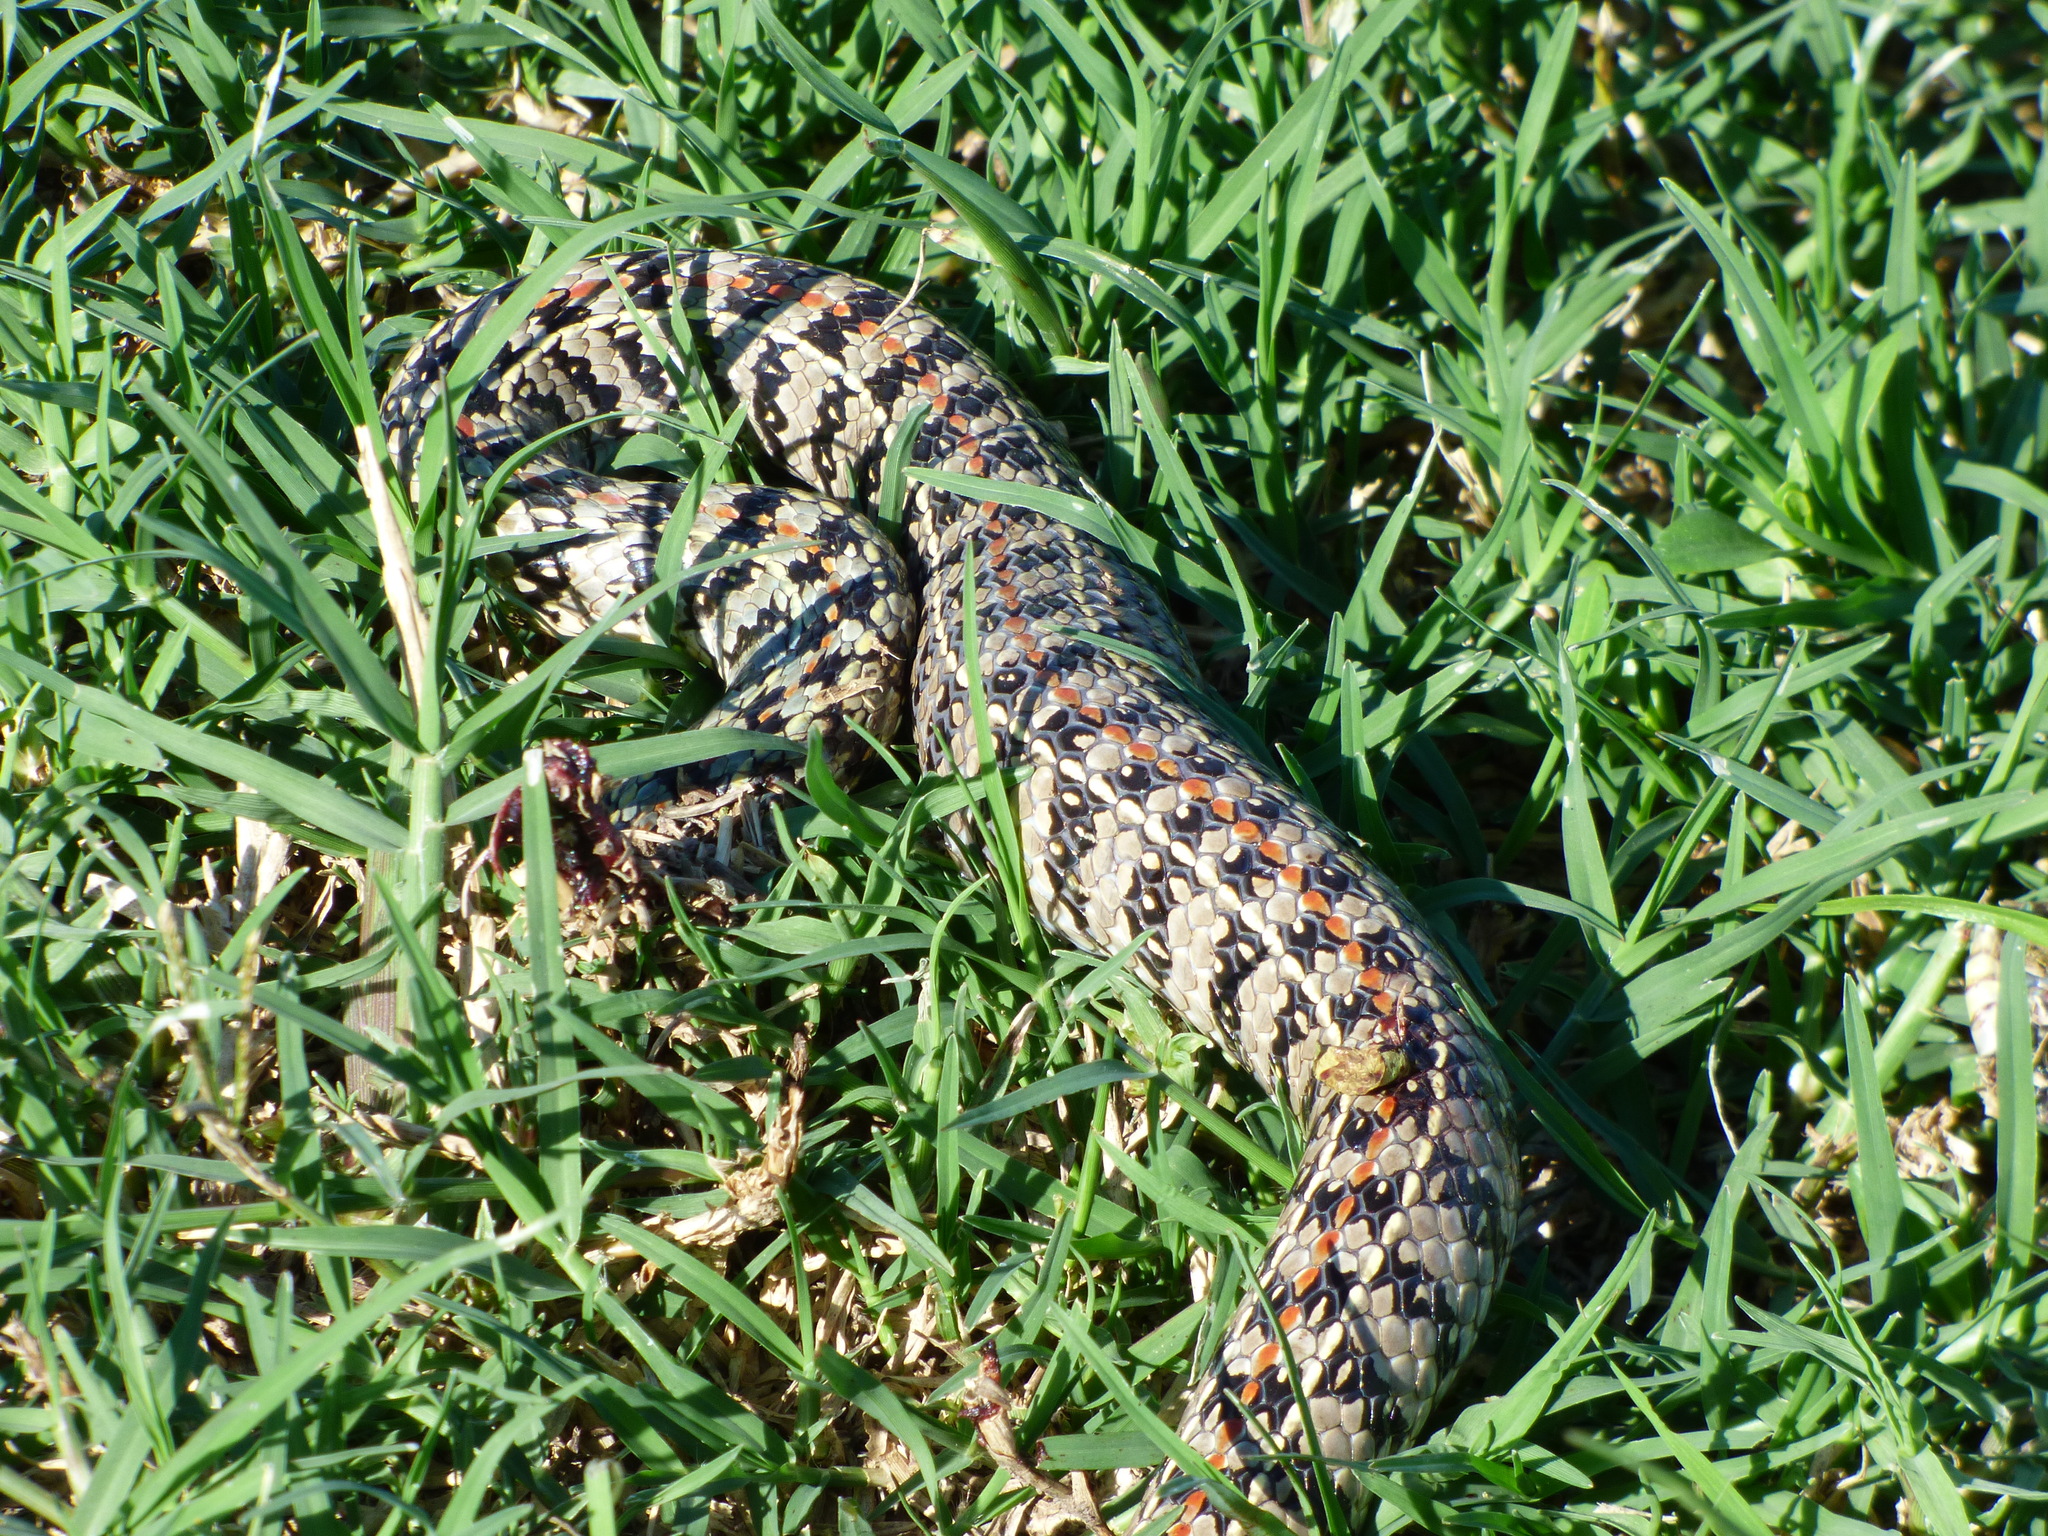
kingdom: Animalia
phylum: Chordata
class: Squamata
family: Colubridae
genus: Lygophis
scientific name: Lygophis anomalus
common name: English common name not available
